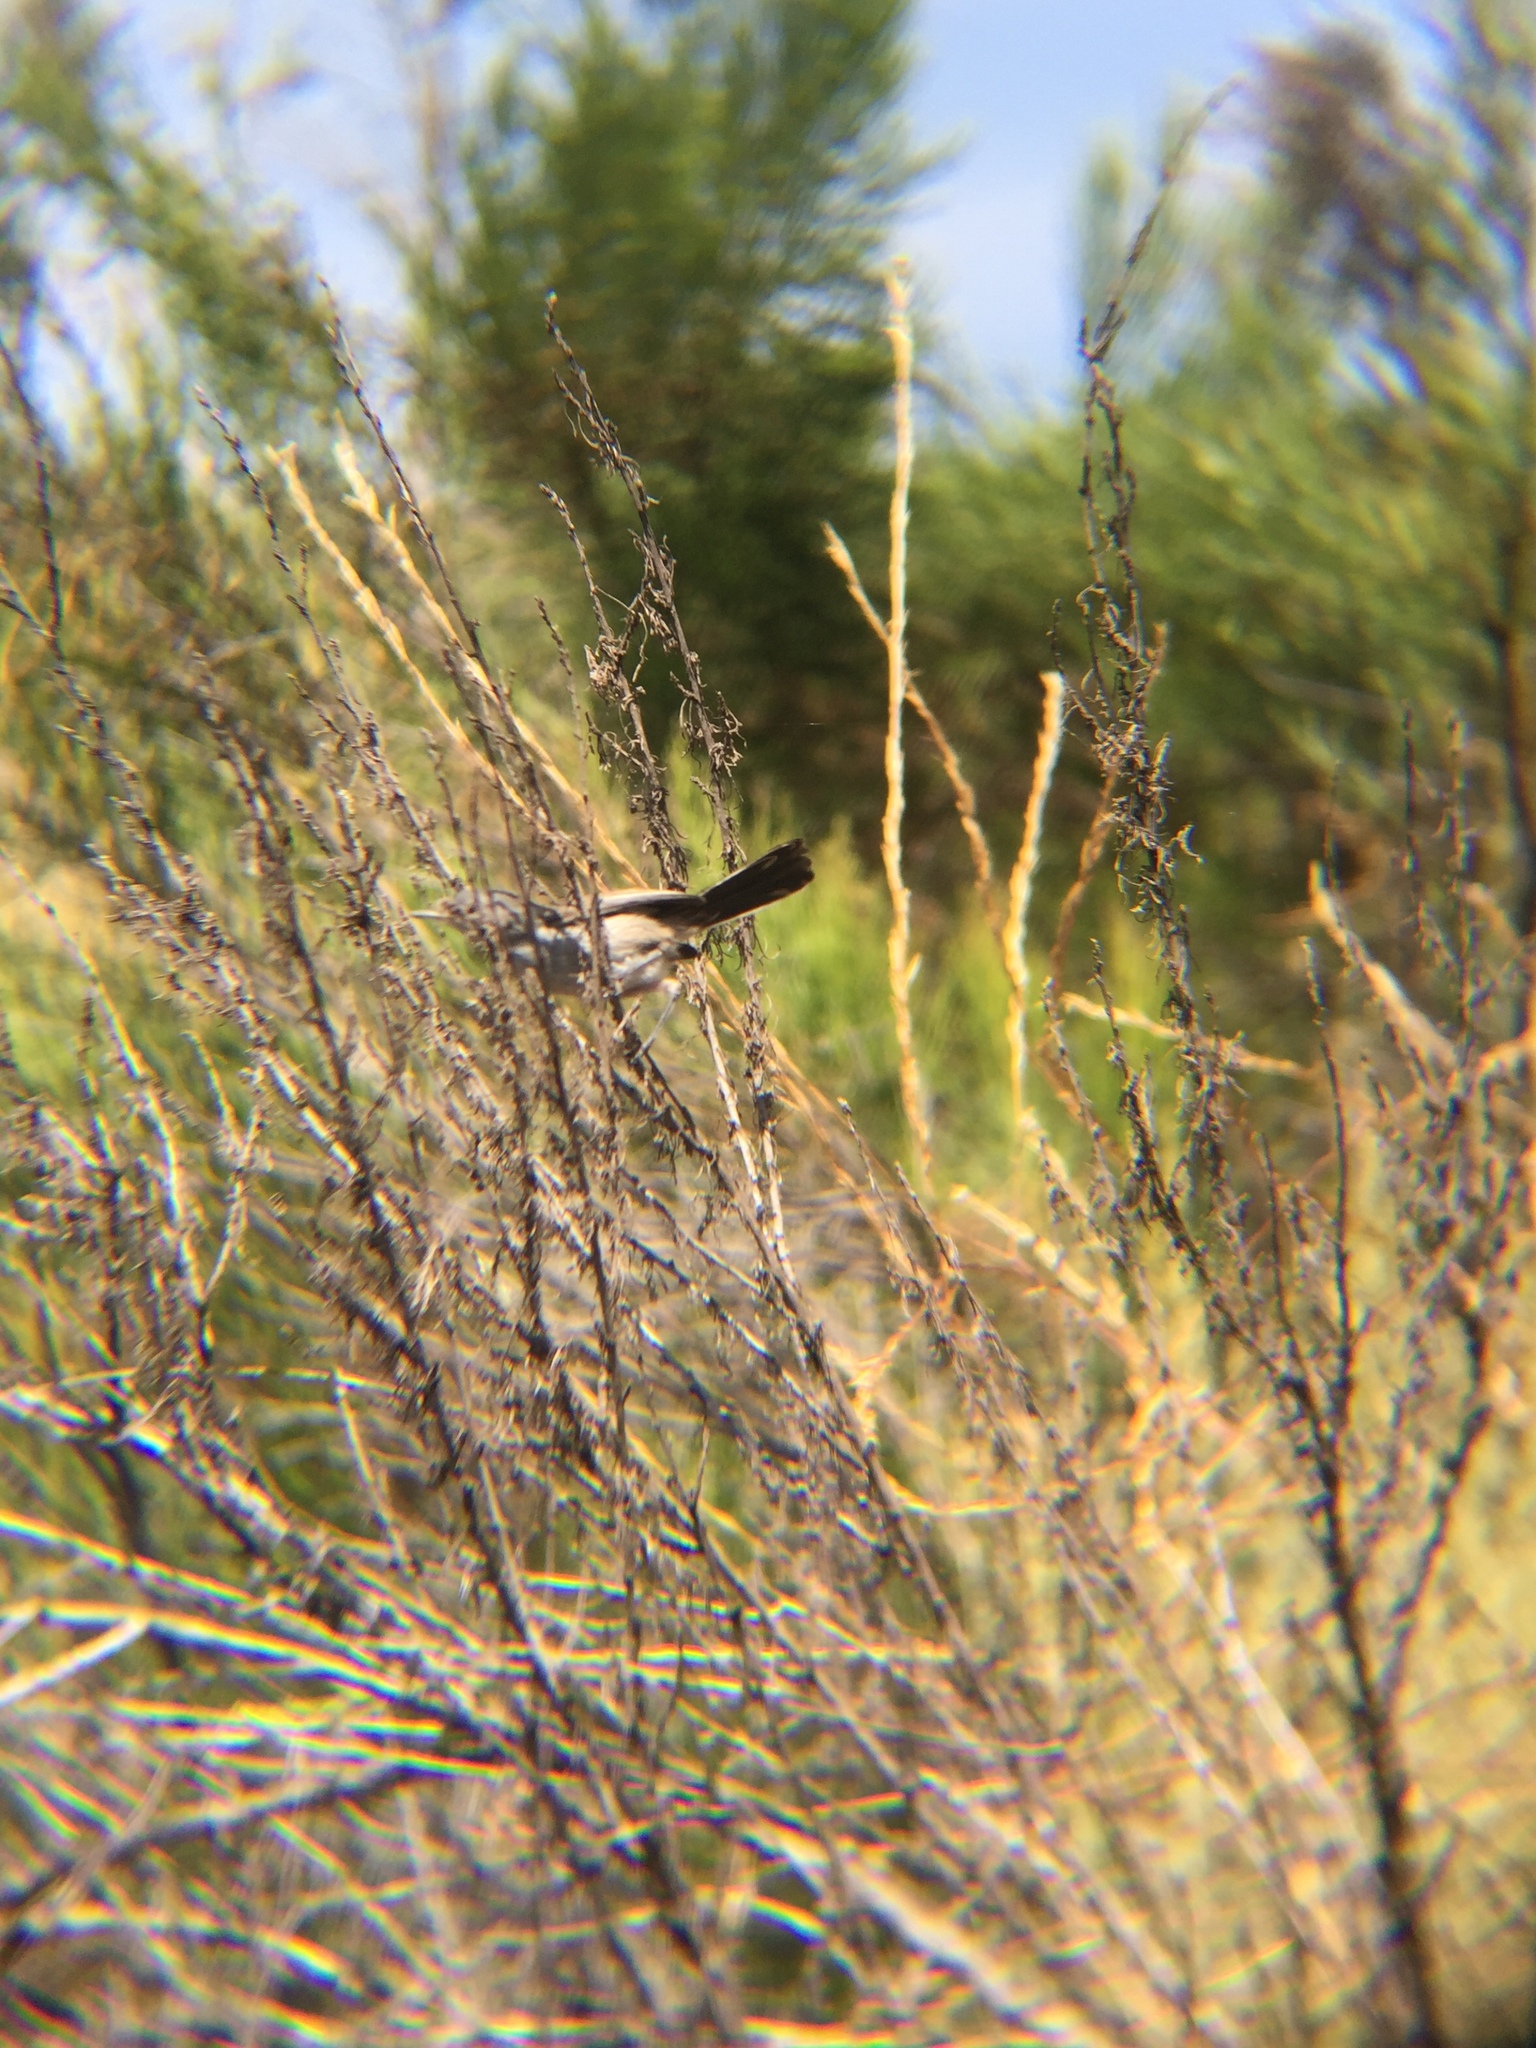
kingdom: Animalia
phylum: Chordata
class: Aves
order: Passeriformes
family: Polioptilidae
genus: Polioptila
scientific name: Polioptila californica
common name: California gnatcatcher
